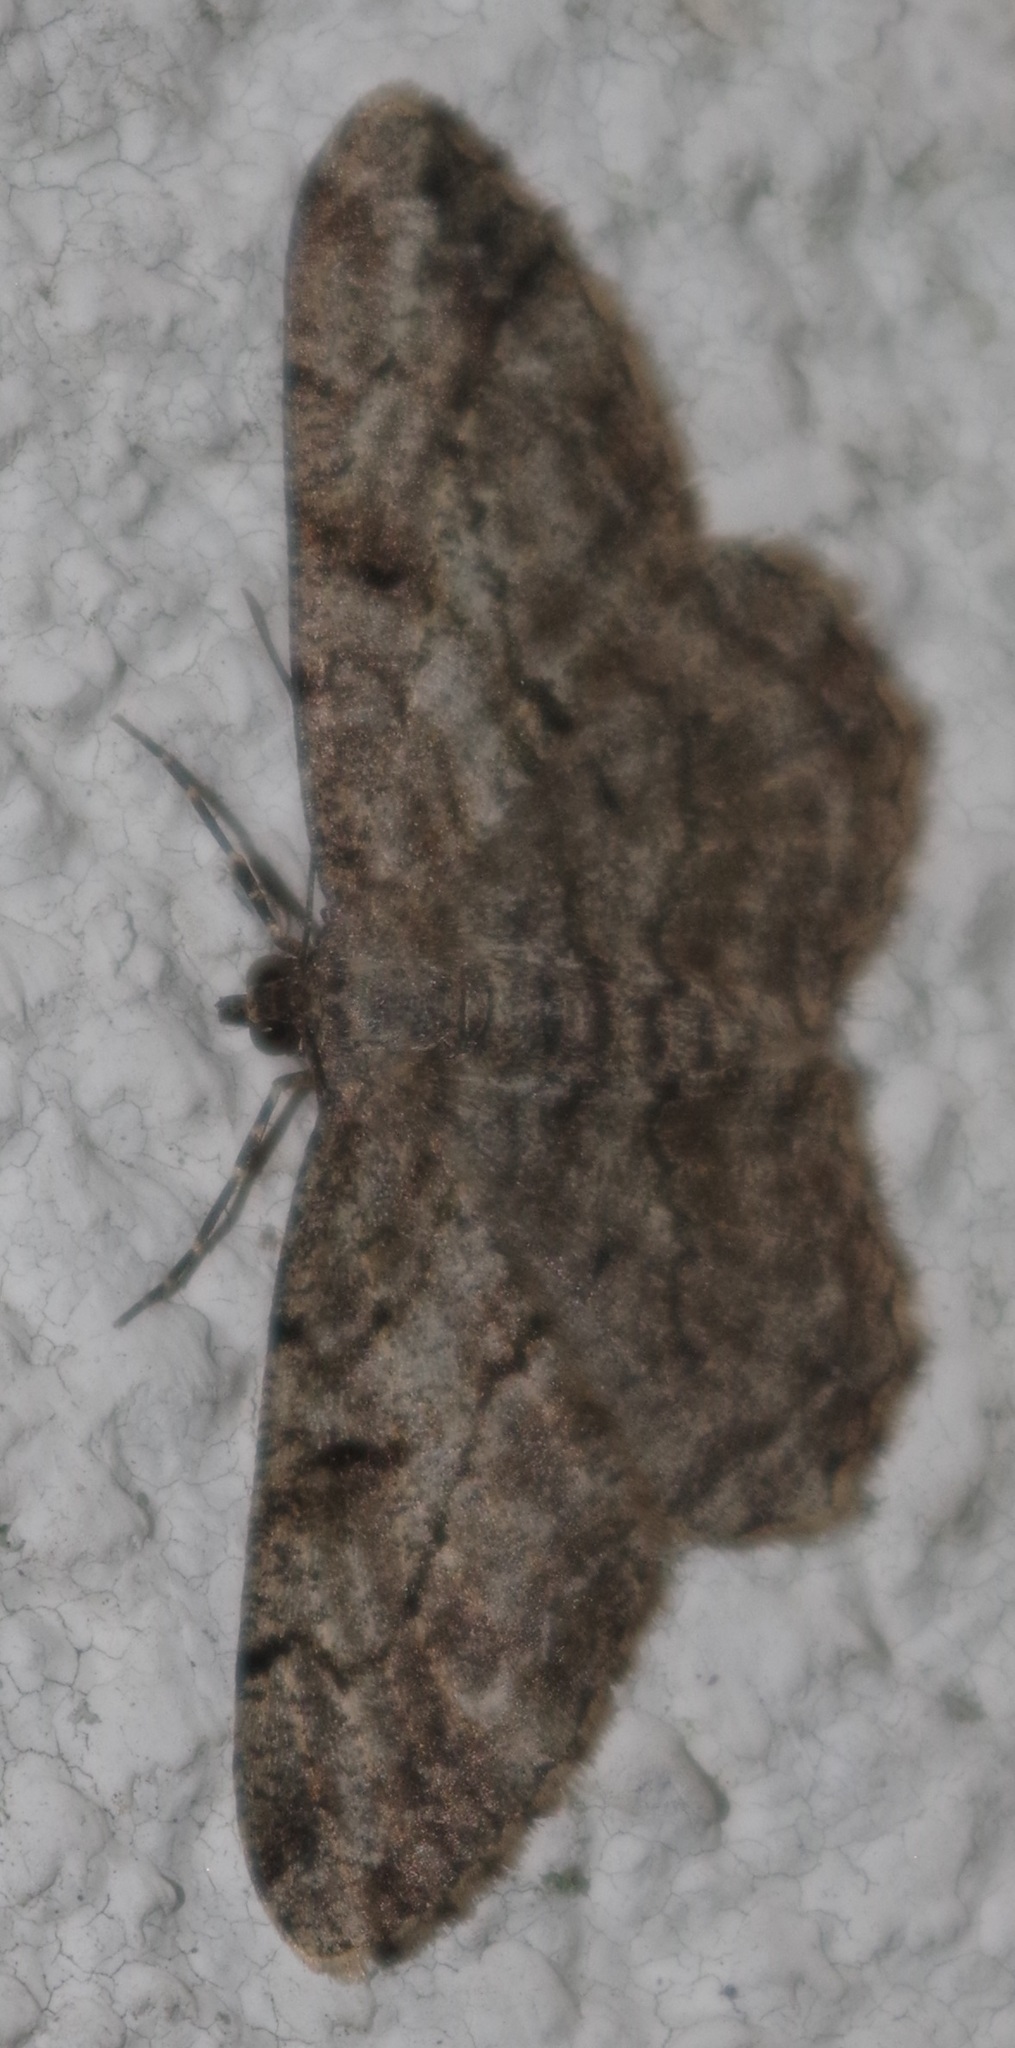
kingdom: Animalia
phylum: Arthropoda
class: Insecta
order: Lepidoptera
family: Geometridae
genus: Peribatodes
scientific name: Peribatodes rhomboidaria
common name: Willow beauty
